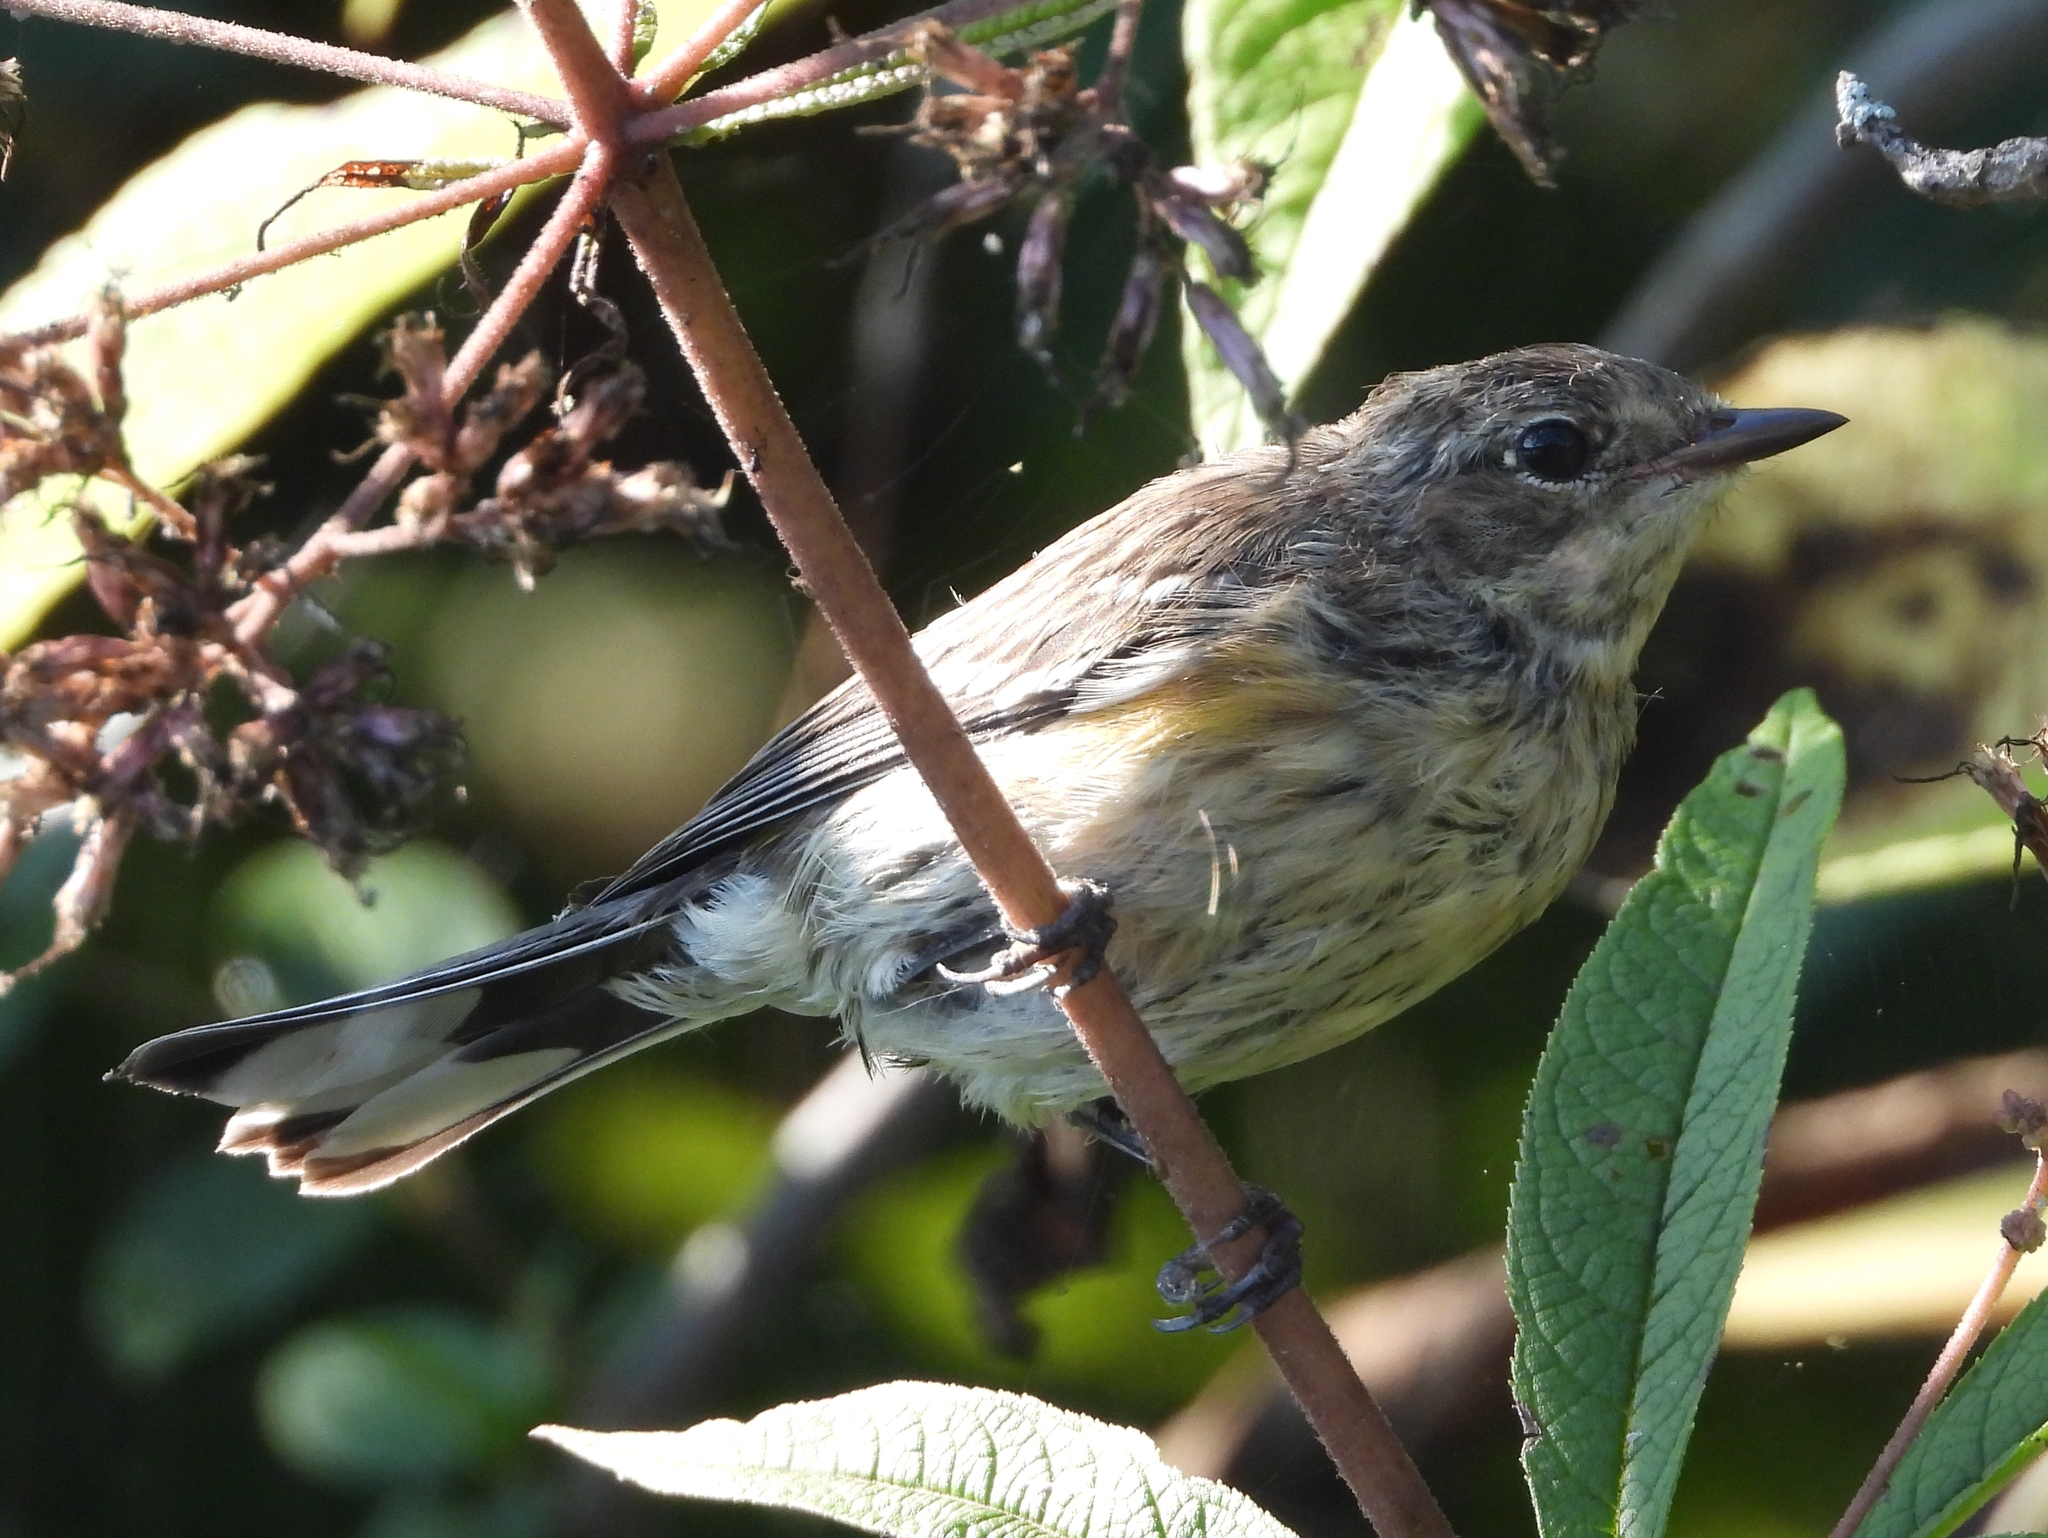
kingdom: Animalia
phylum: Chordata
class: Aves
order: Passeriformes
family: Parulidae
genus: Setophaga
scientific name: Setophaga coronata
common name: Myrtle warbler
